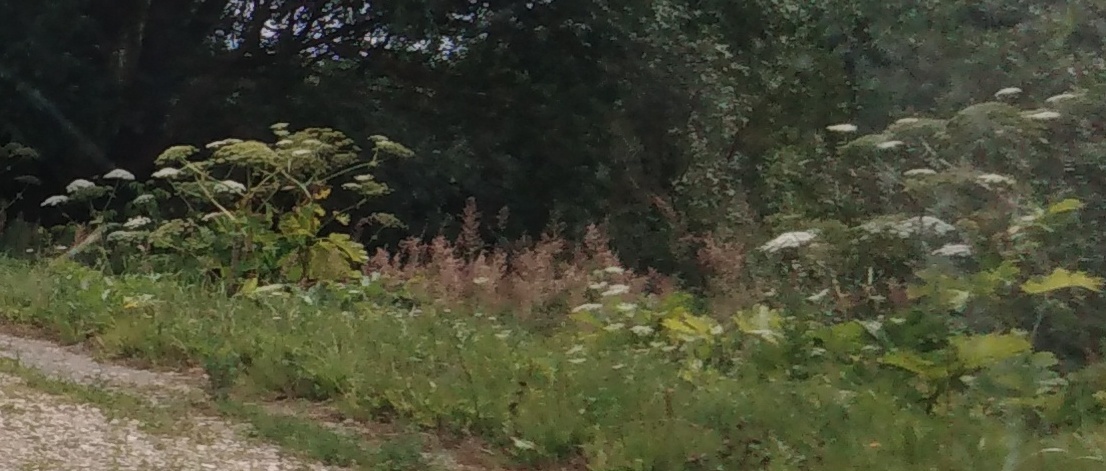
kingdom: Plantae
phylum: Tracheophyta
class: Magnoliopsida
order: Apiales
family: Apiaceae
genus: Heracleum
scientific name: Heracleum sosnowskyi
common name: Sosnowsky's hogweed
